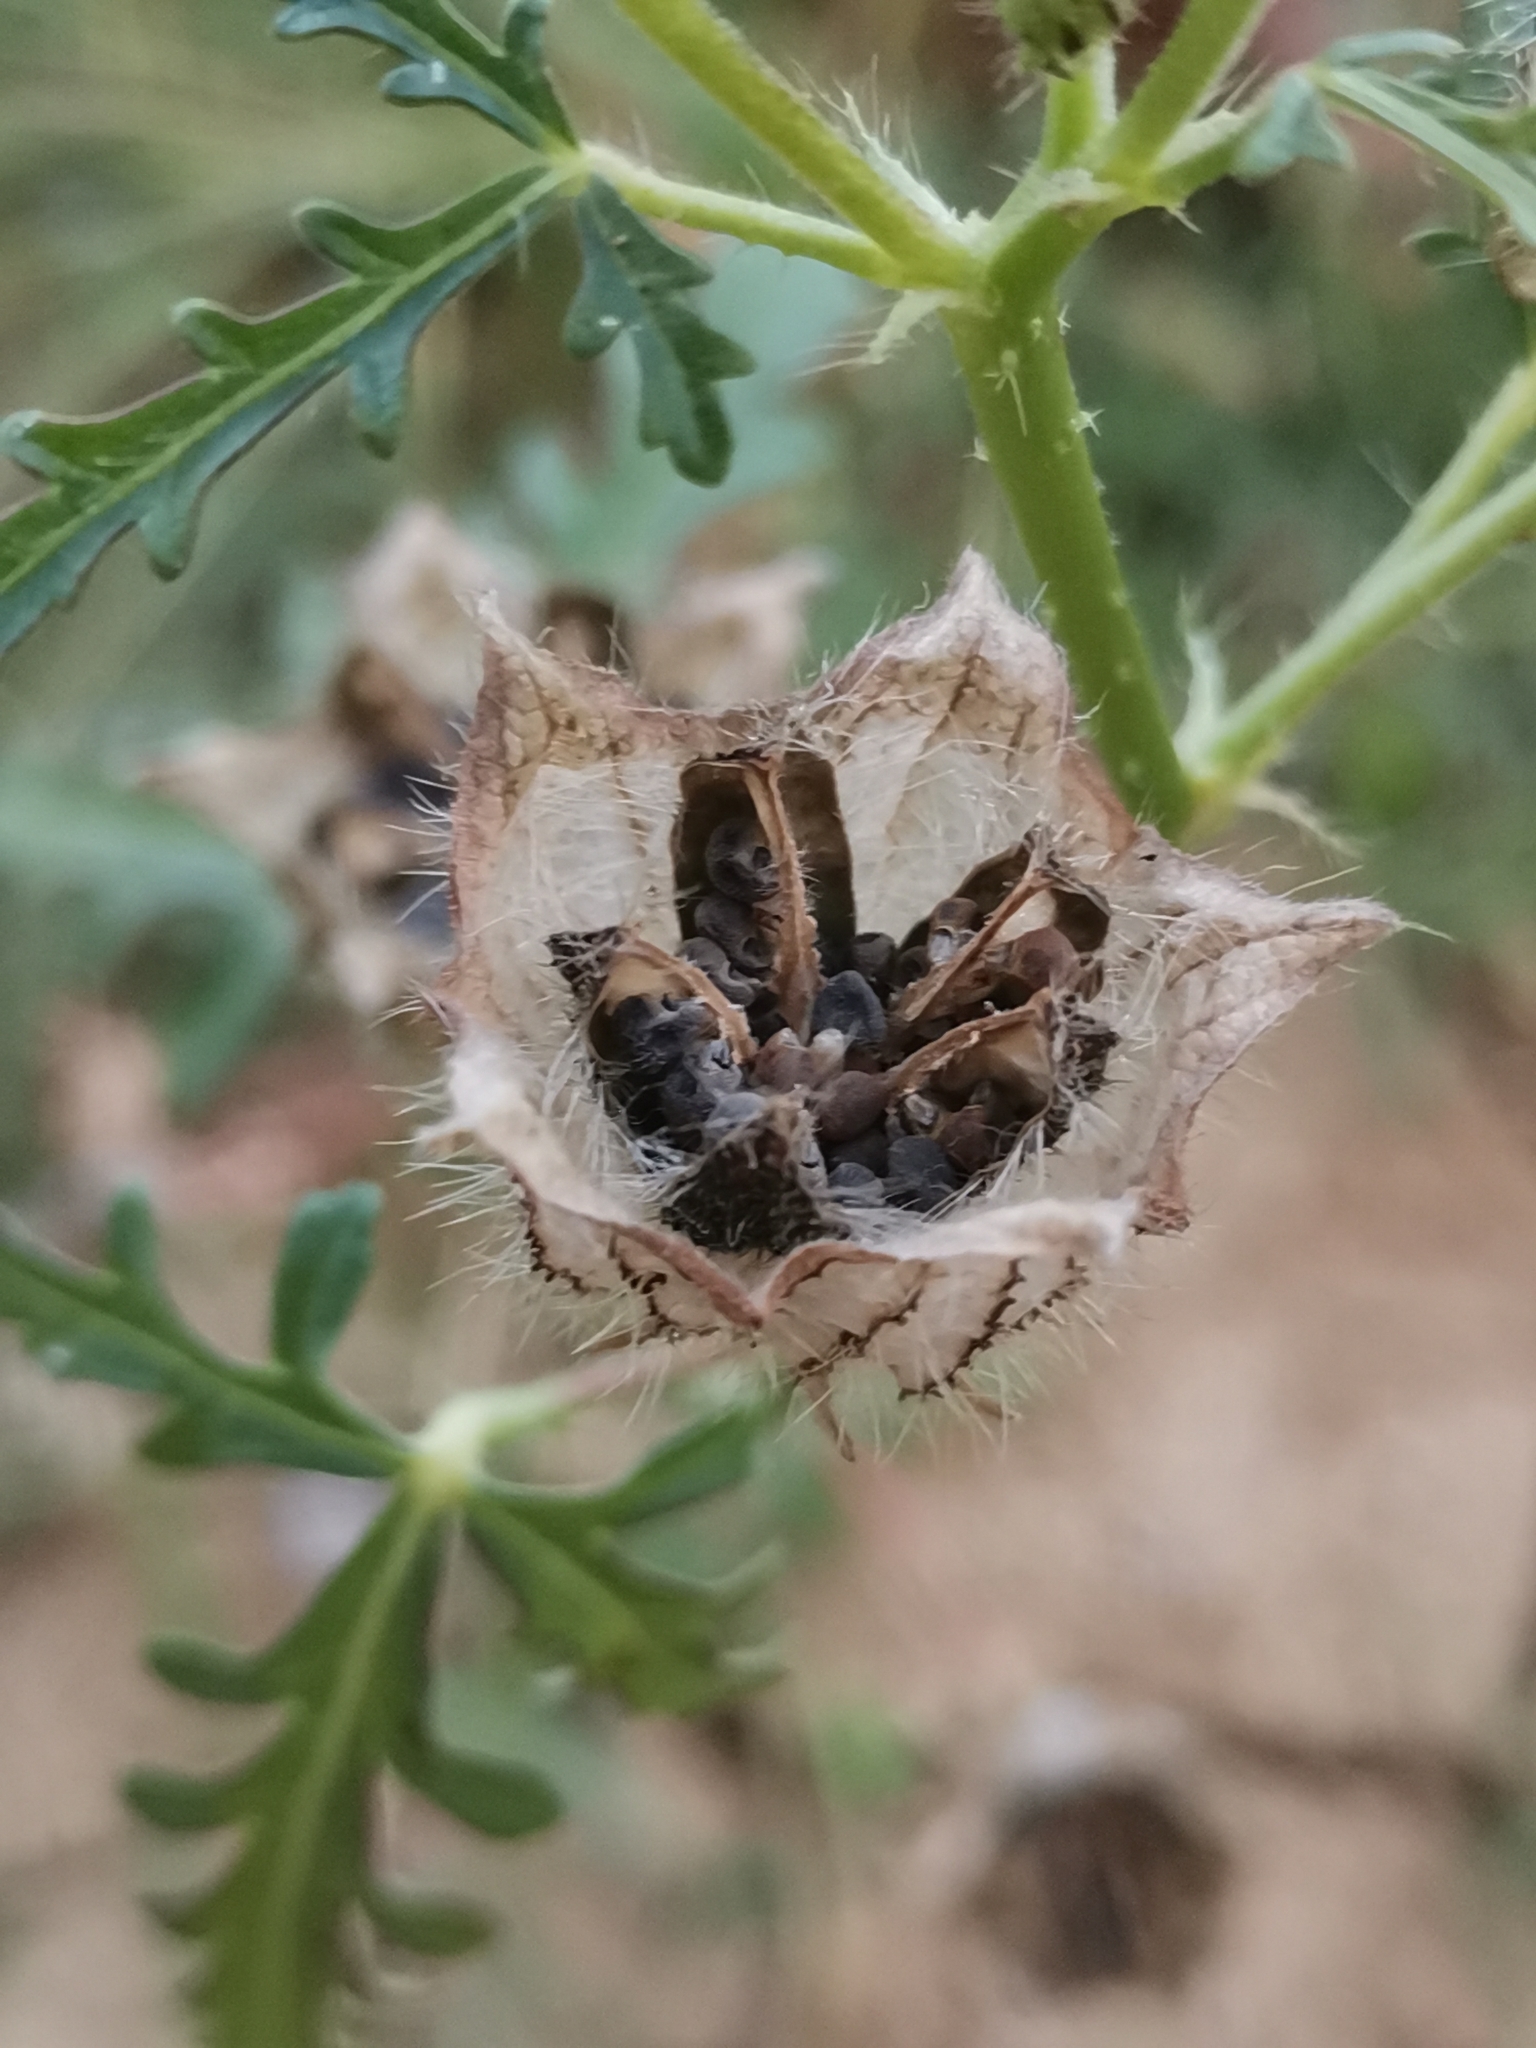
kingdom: Plantae
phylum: Tracheophyta
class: Magnoliopsida
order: Malvales
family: Malvaceae
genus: Hibiscus
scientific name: Hibiscus trionum
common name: Bladder ketmia
